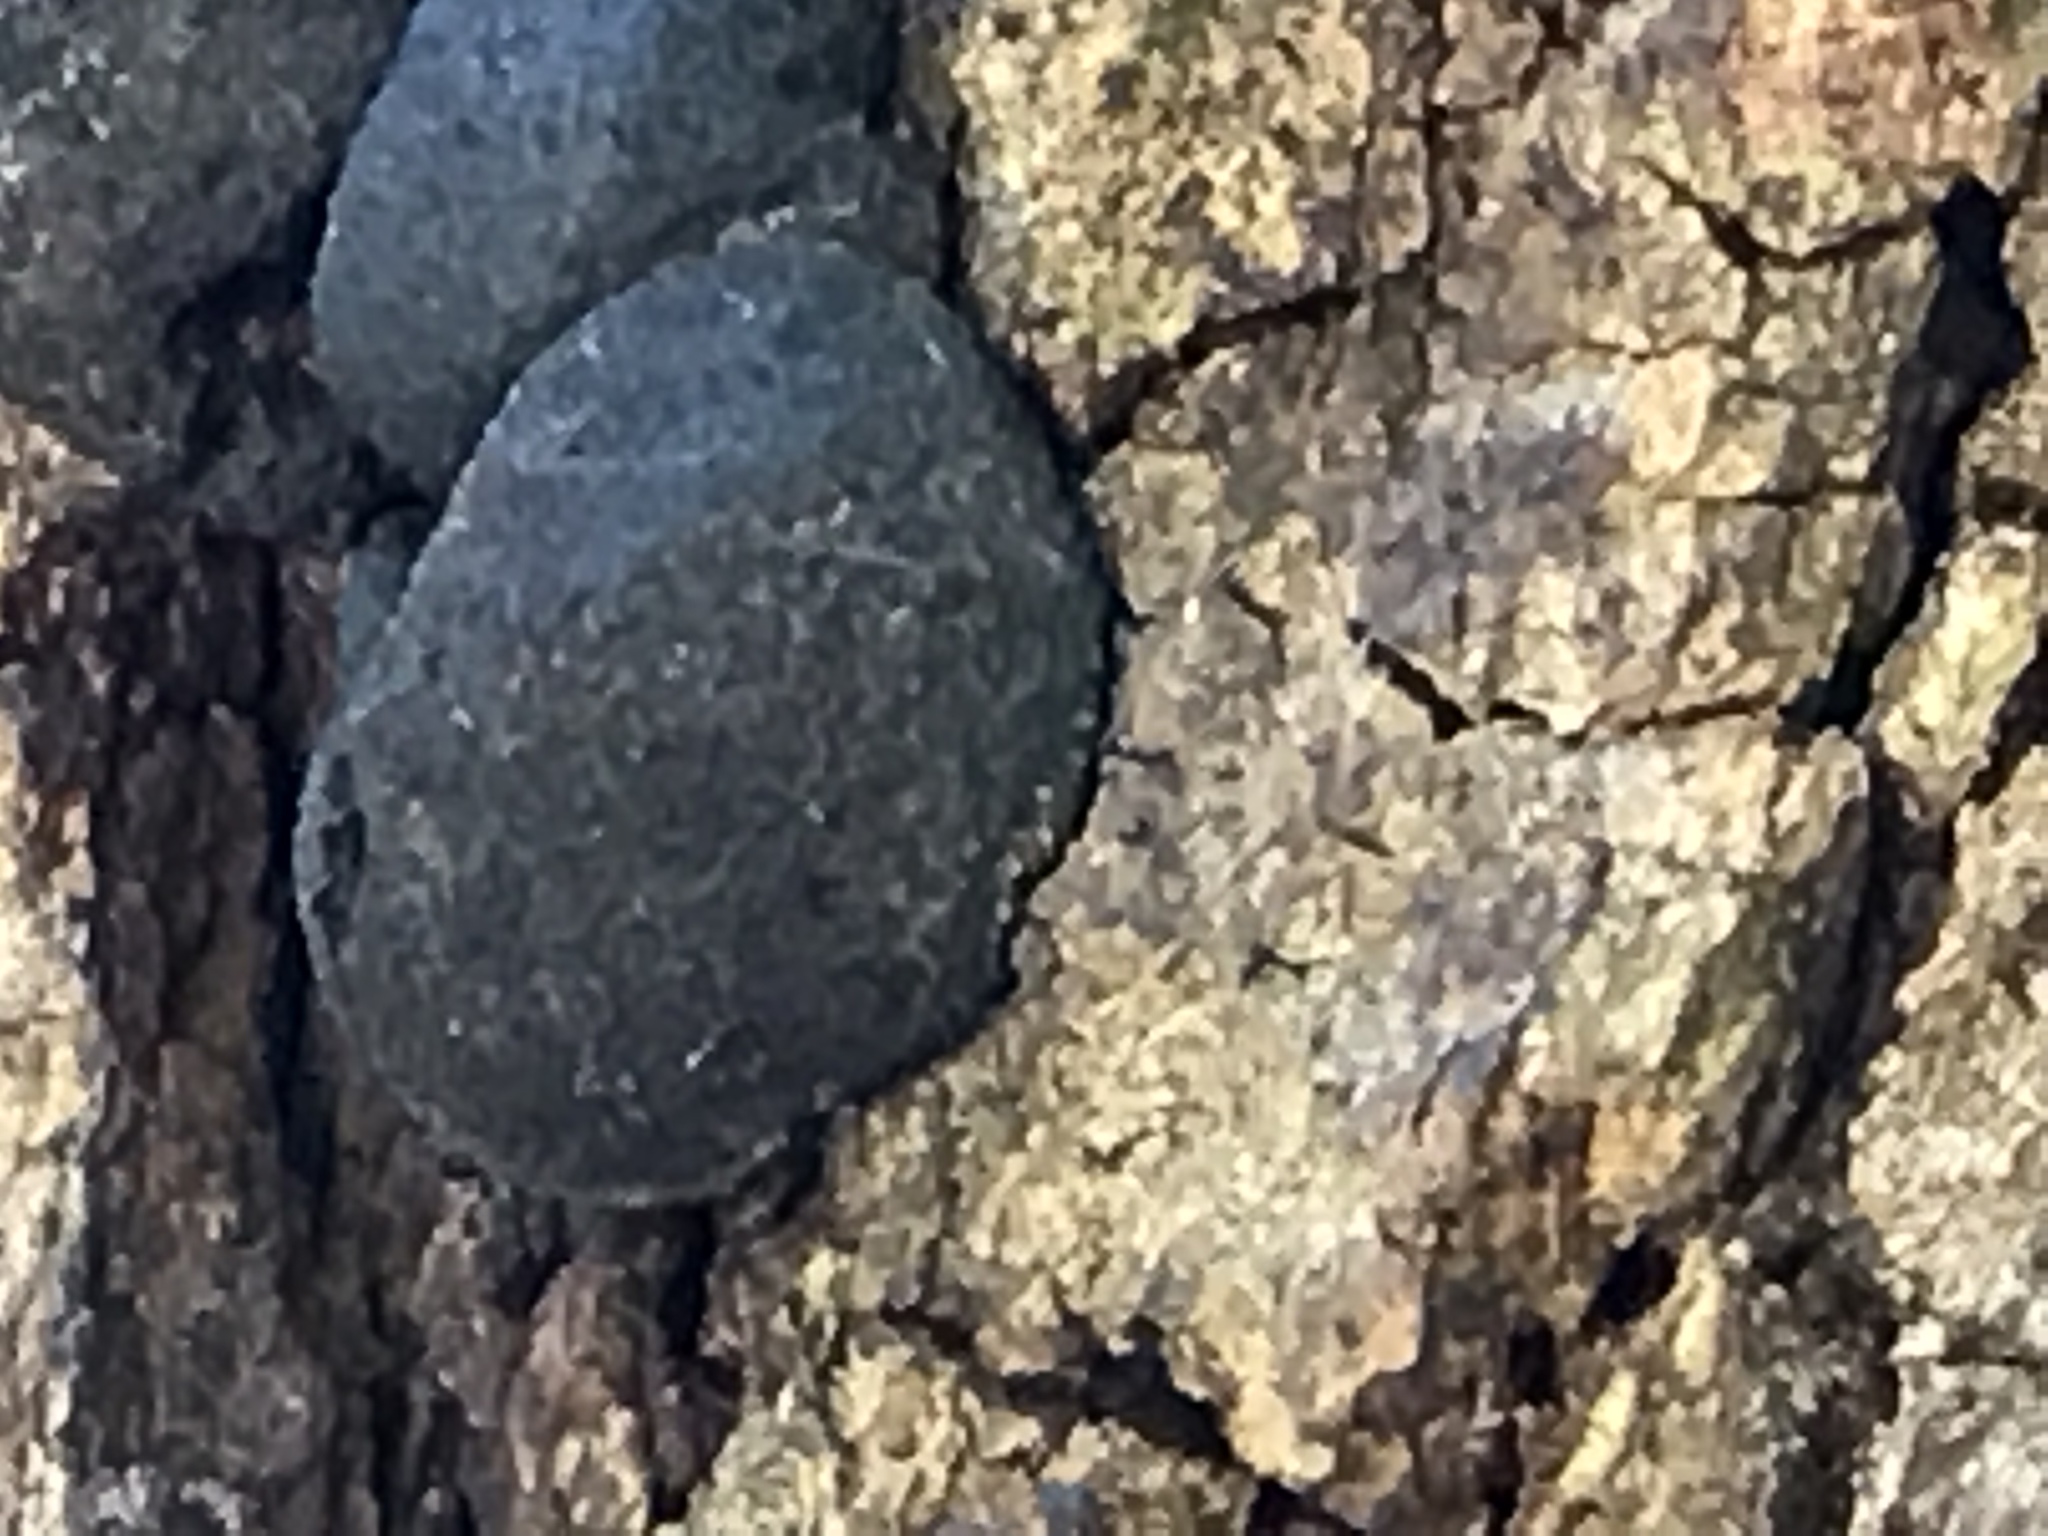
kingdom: Fungi
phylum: Ascomycota
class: Sordariomycetes
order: Xylariales
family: Hypoxylaceae
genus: Annulohypoxylon
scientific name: Annulohypoxylon thouarsianum
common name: Cramp balls
